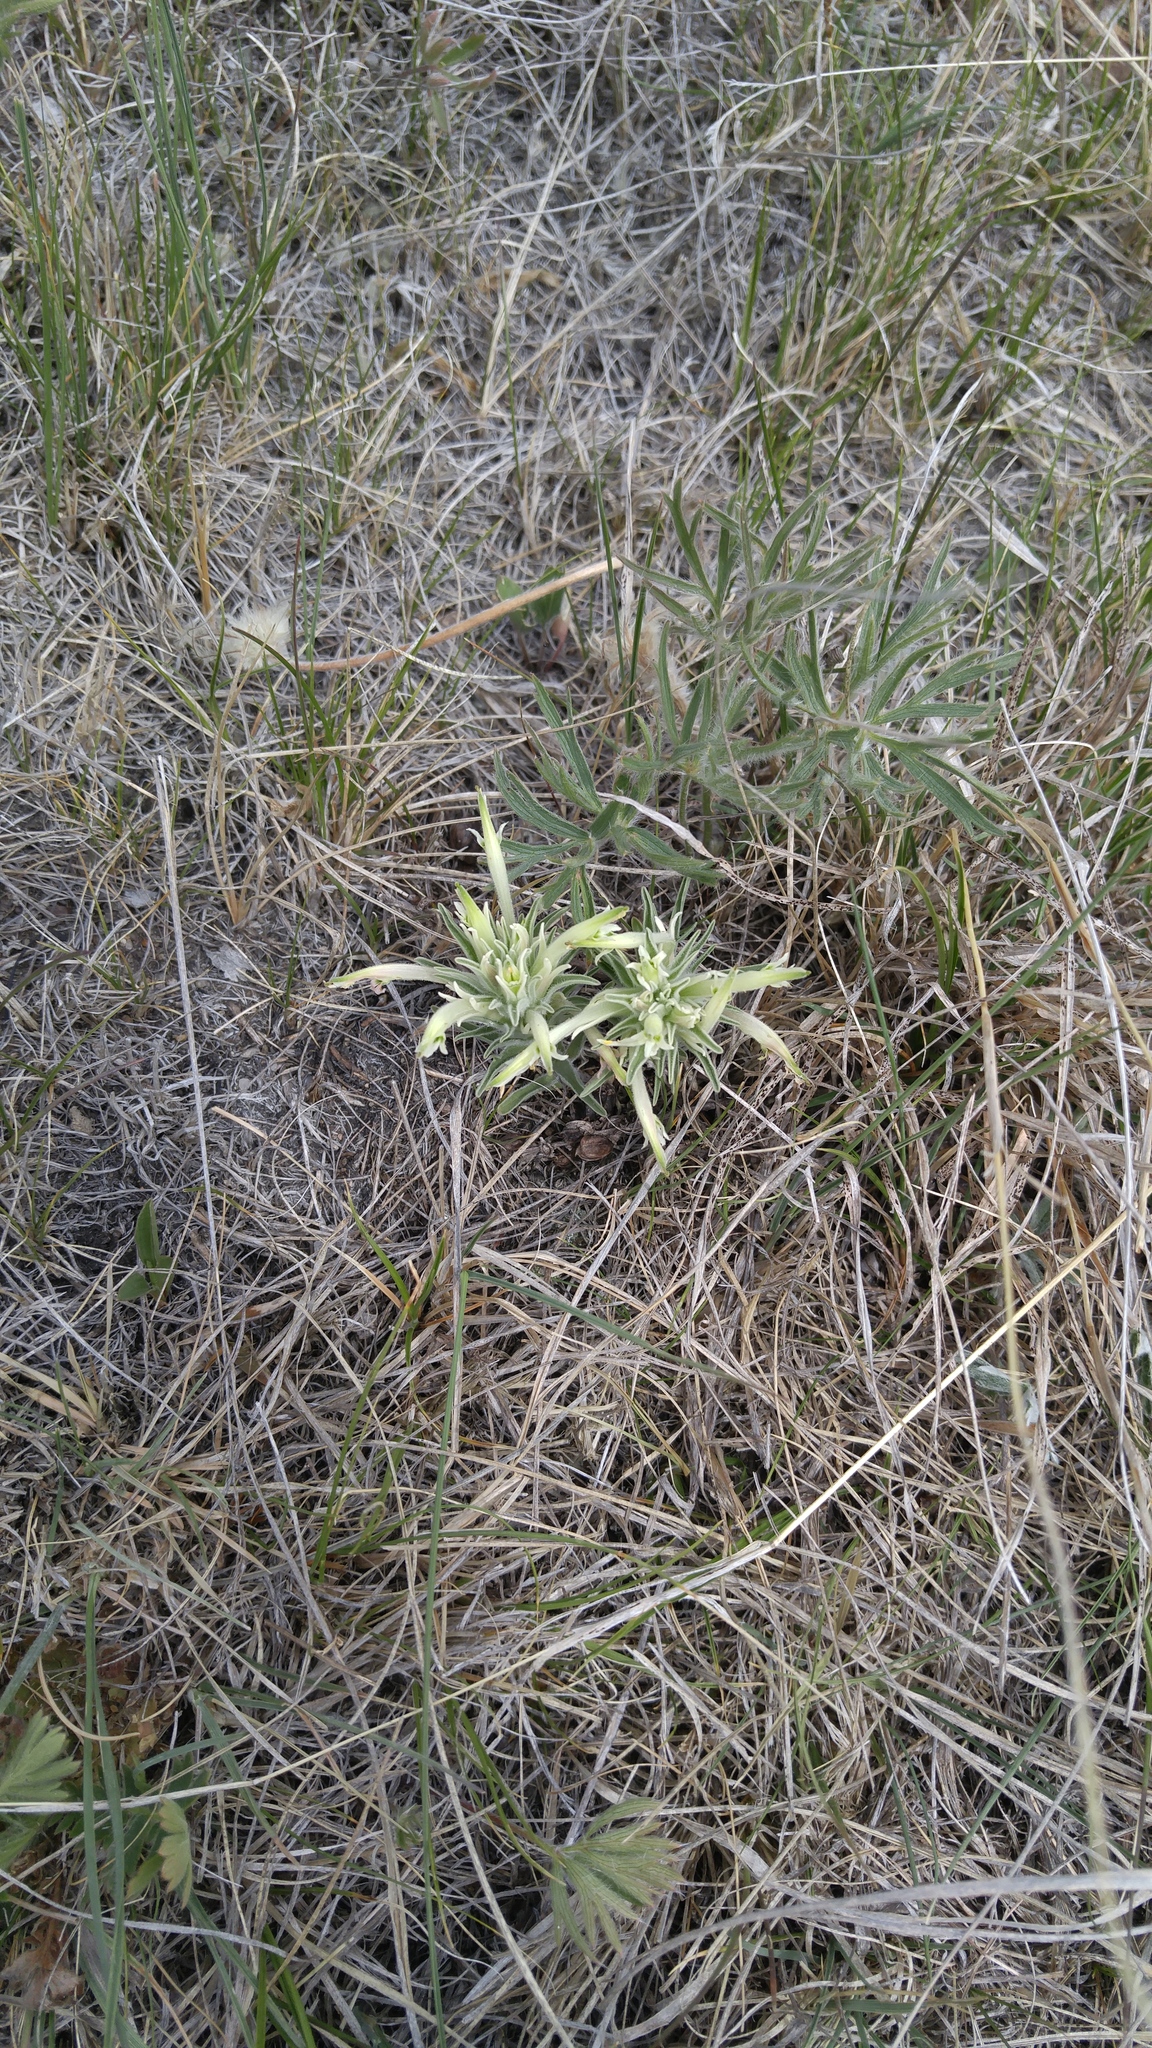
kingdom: Plantae
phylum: Tracheophyta
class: Magnoliopsida
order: Lamiales
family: Orobanchaceae
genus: Castilleja
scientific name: Castilleja sessiliflora
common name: Downy paintbrush
